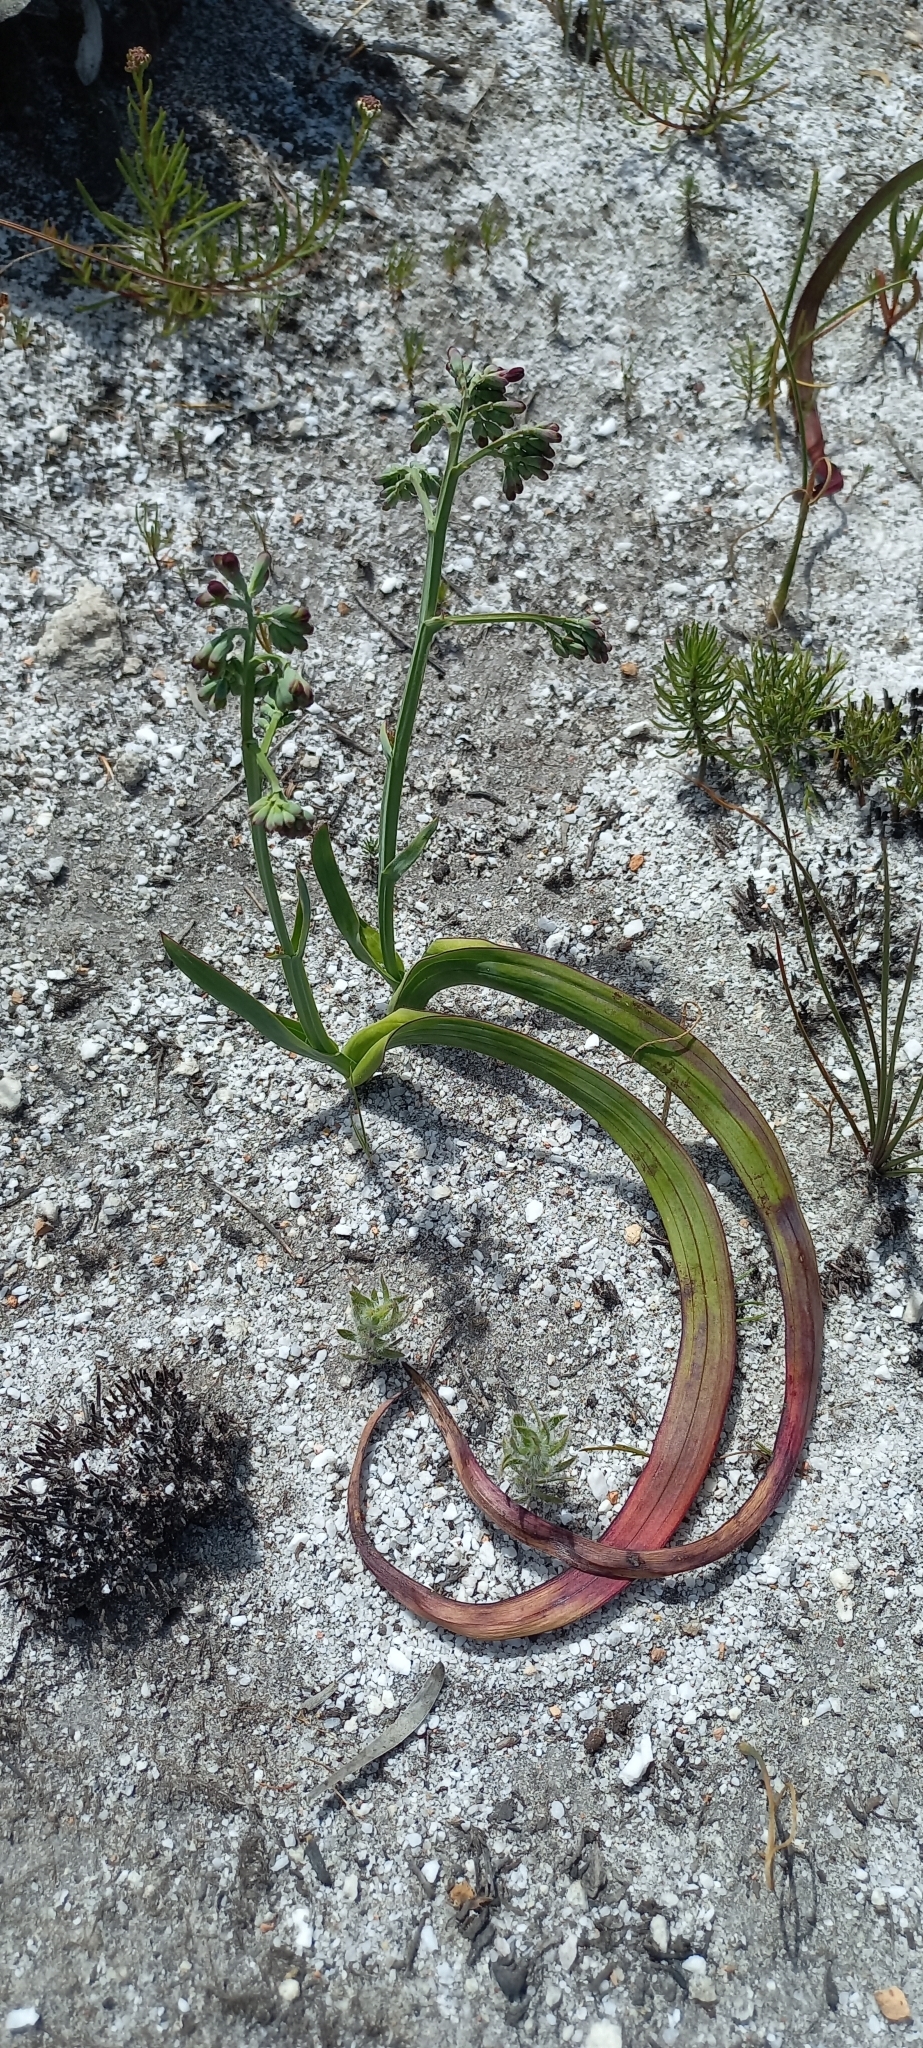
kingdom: Plantae
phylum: Tracheophyta
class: Liliopsida
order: Asparagales
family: Iridaceae
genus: Codonorhiza
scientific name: Codonorhiza micrantha
